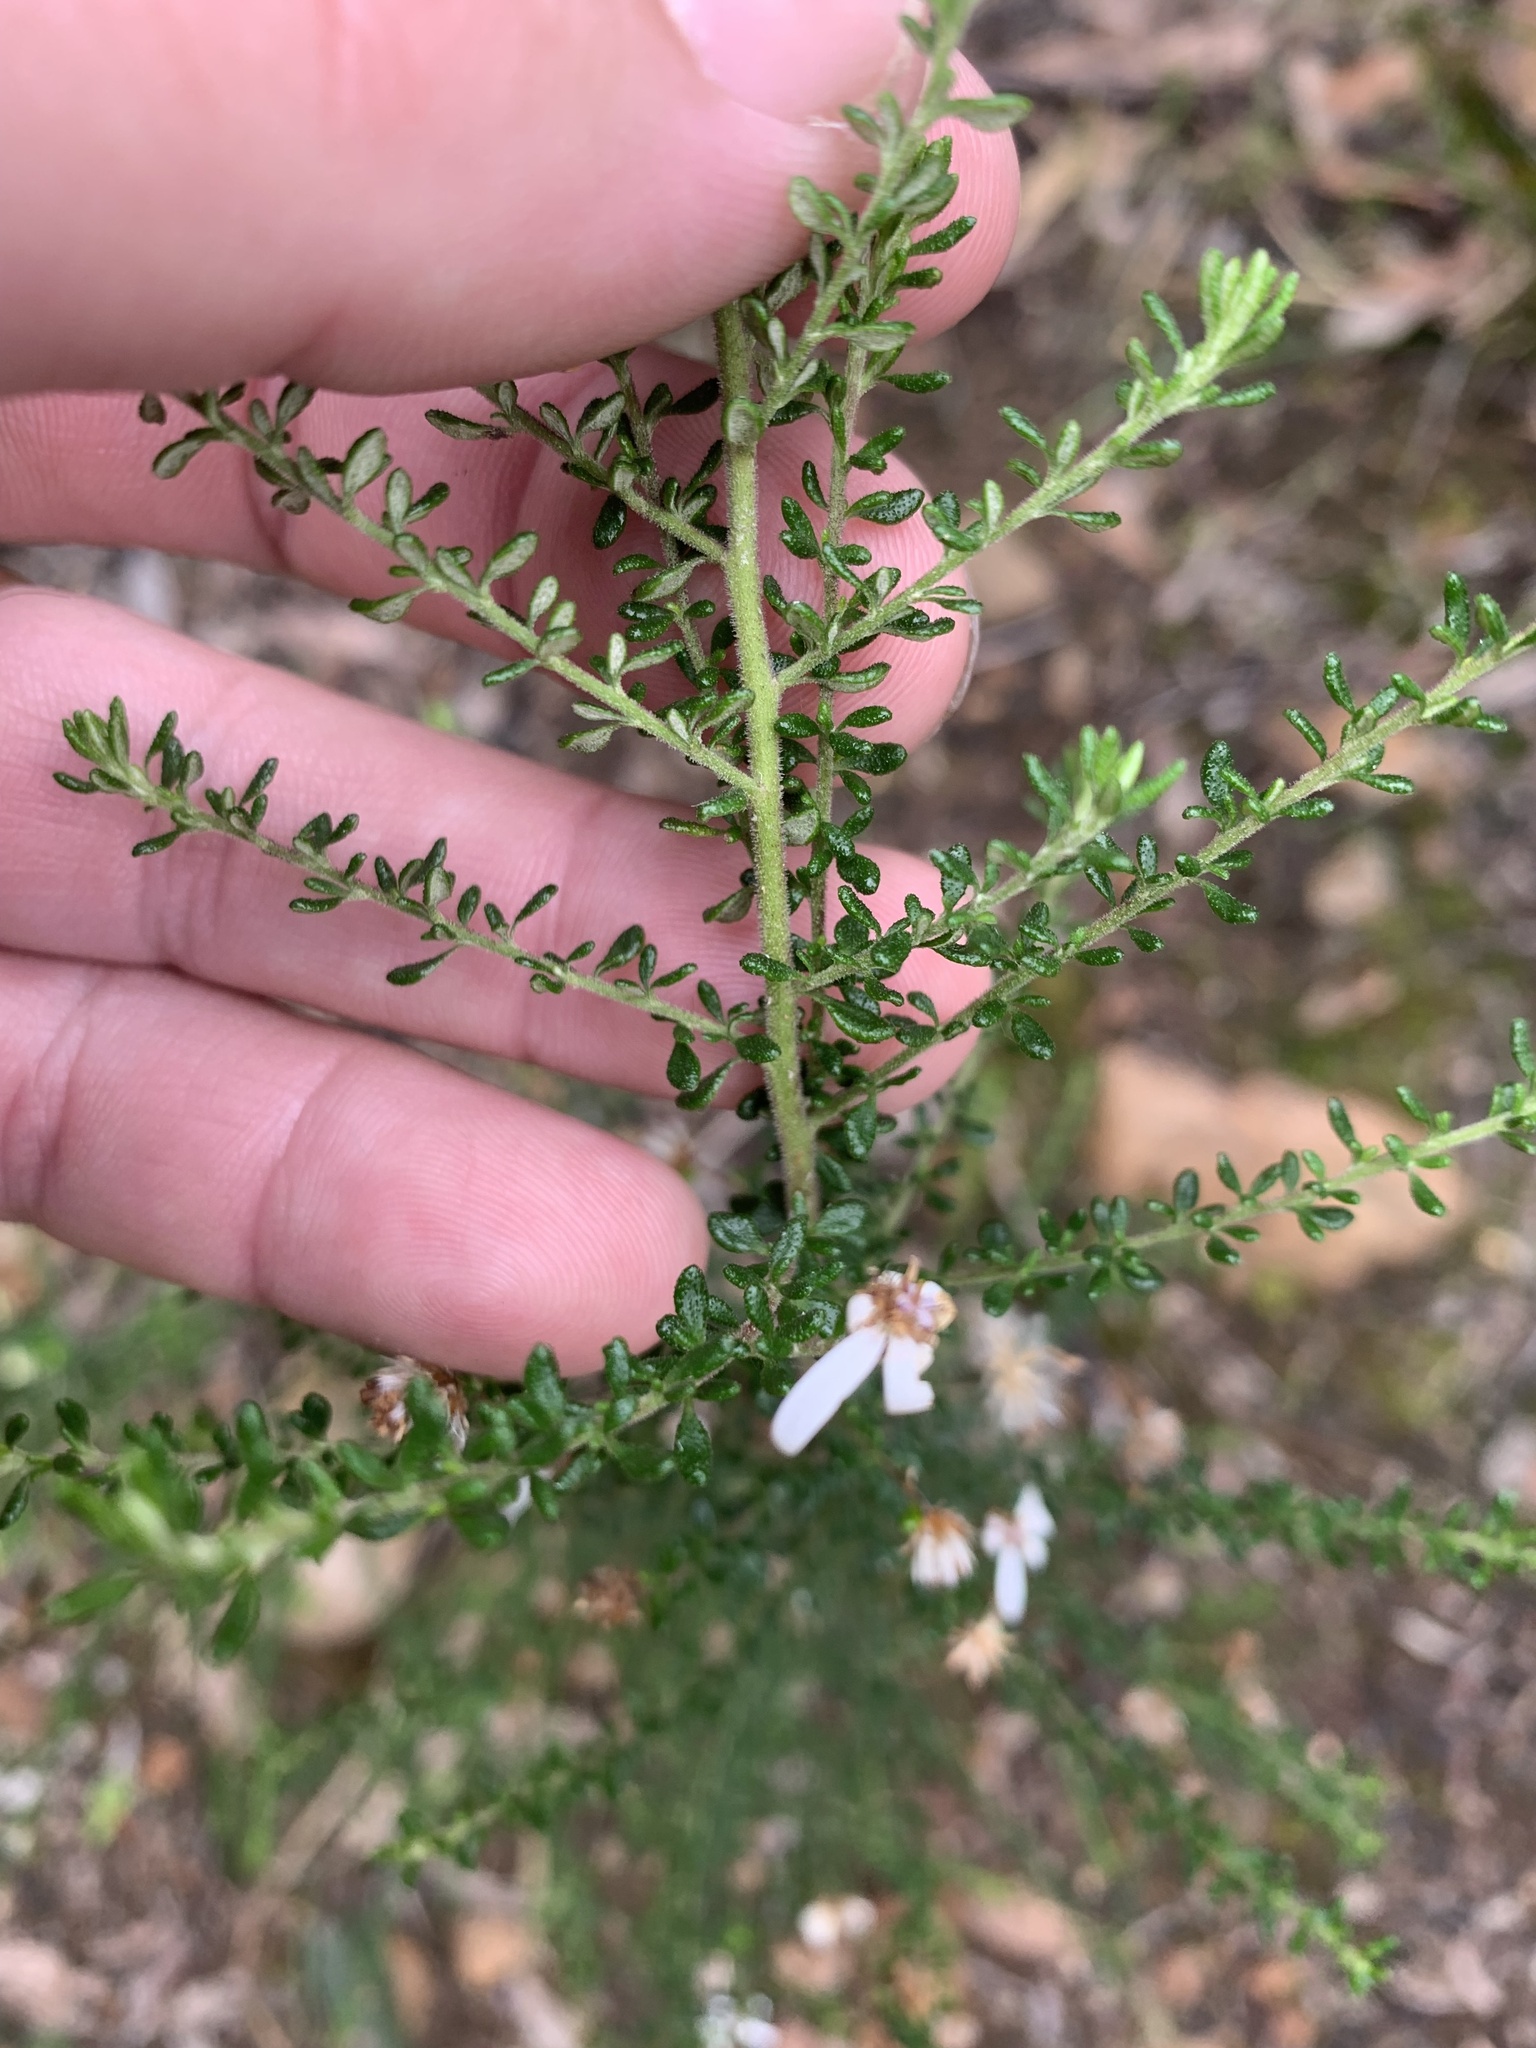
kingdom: Plantae
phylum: Tracheophyta
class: Magnoliopsida
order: Asterales
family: Asteraceae
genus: Olearia
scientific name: Olearia microphylla
